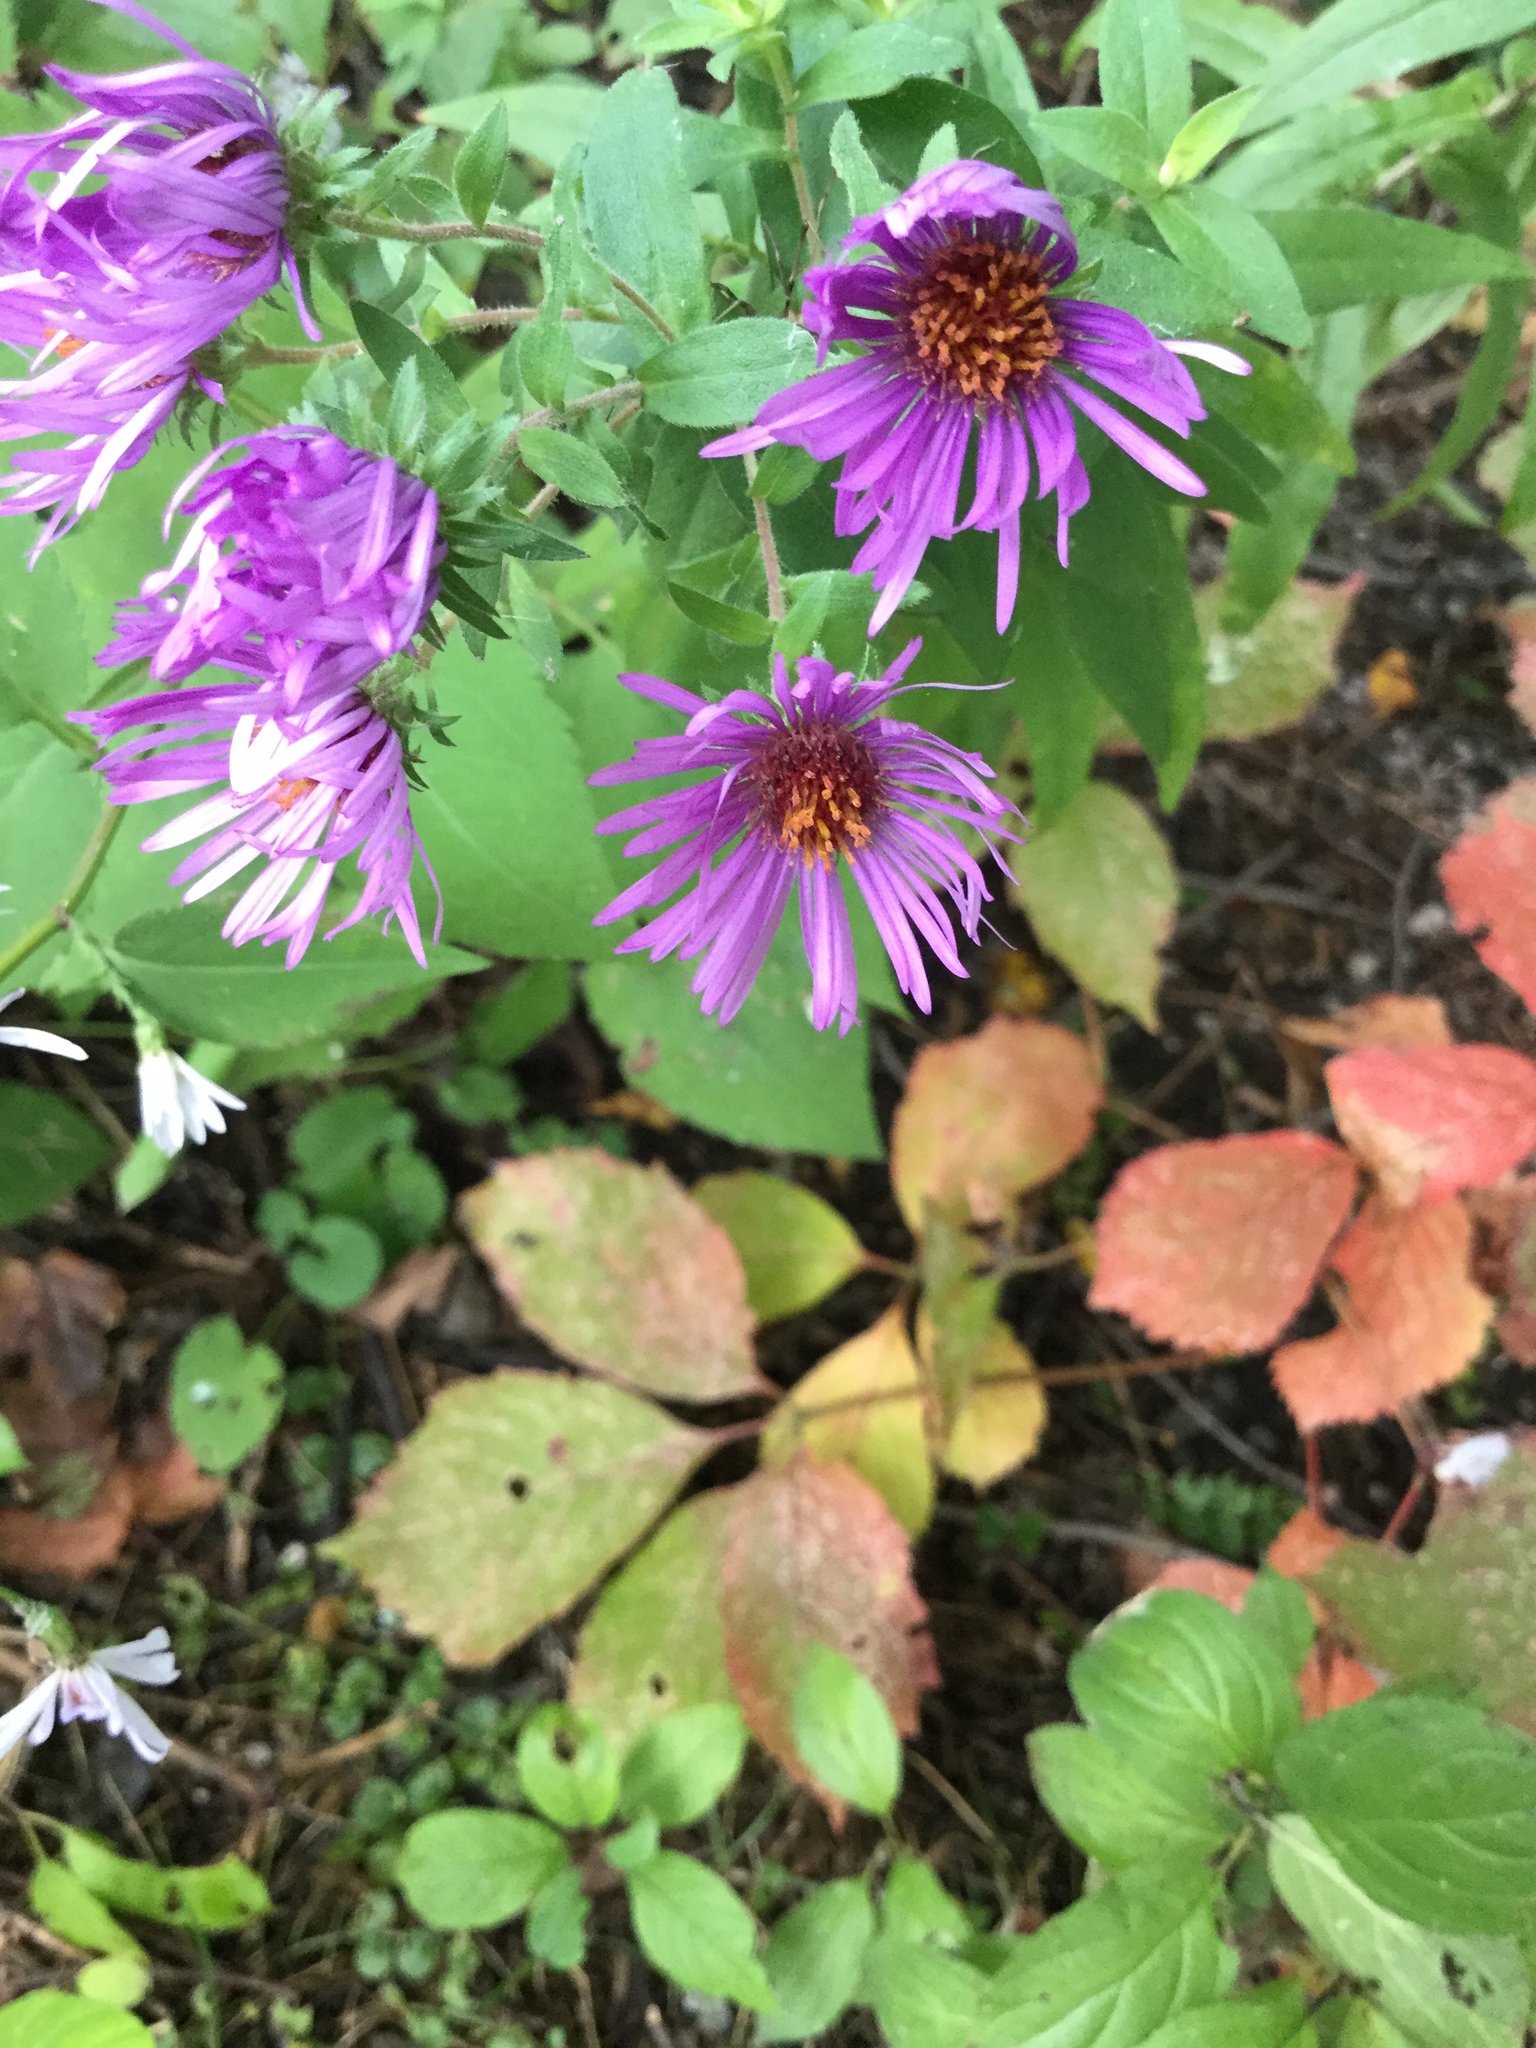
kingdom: Plantae
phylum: Tracheophyta
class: Magnoliopsida
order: Asterales
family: Asteraceae
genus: Symphyotrichum
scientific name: Symphyotrichum novae-angliae
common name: Michaelmas daisy
